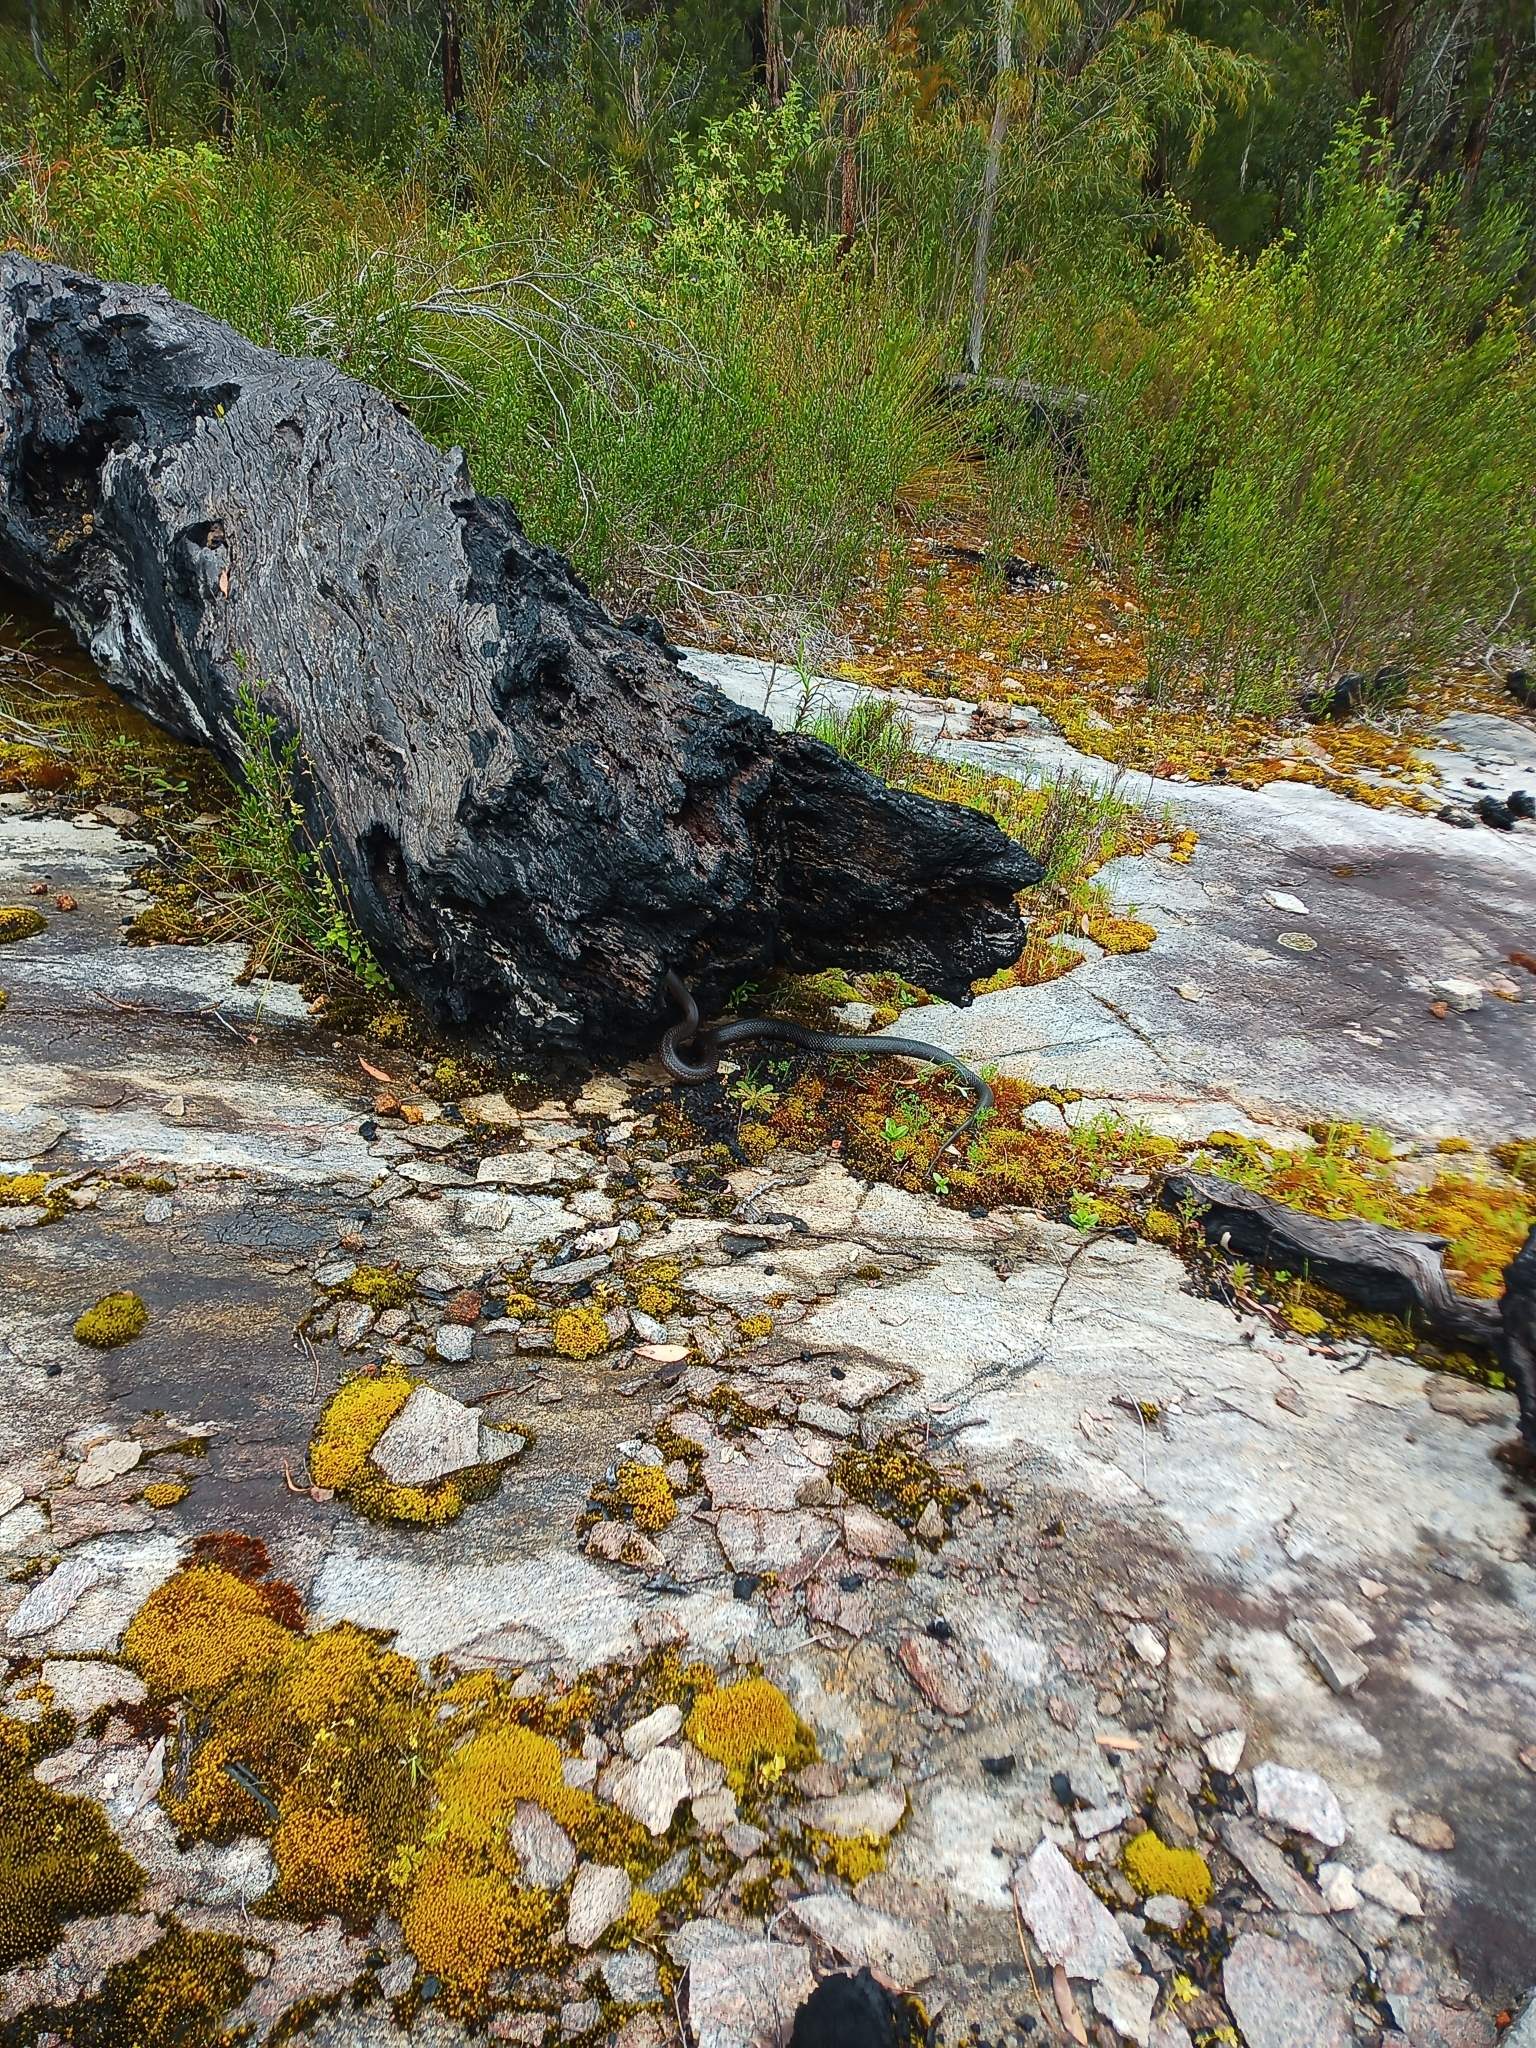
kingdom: Animalia
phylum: Chordata
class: Squamata
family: Elapidae
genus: Pseudonaja
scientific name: Pseudonaja affinis
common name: Dugite
